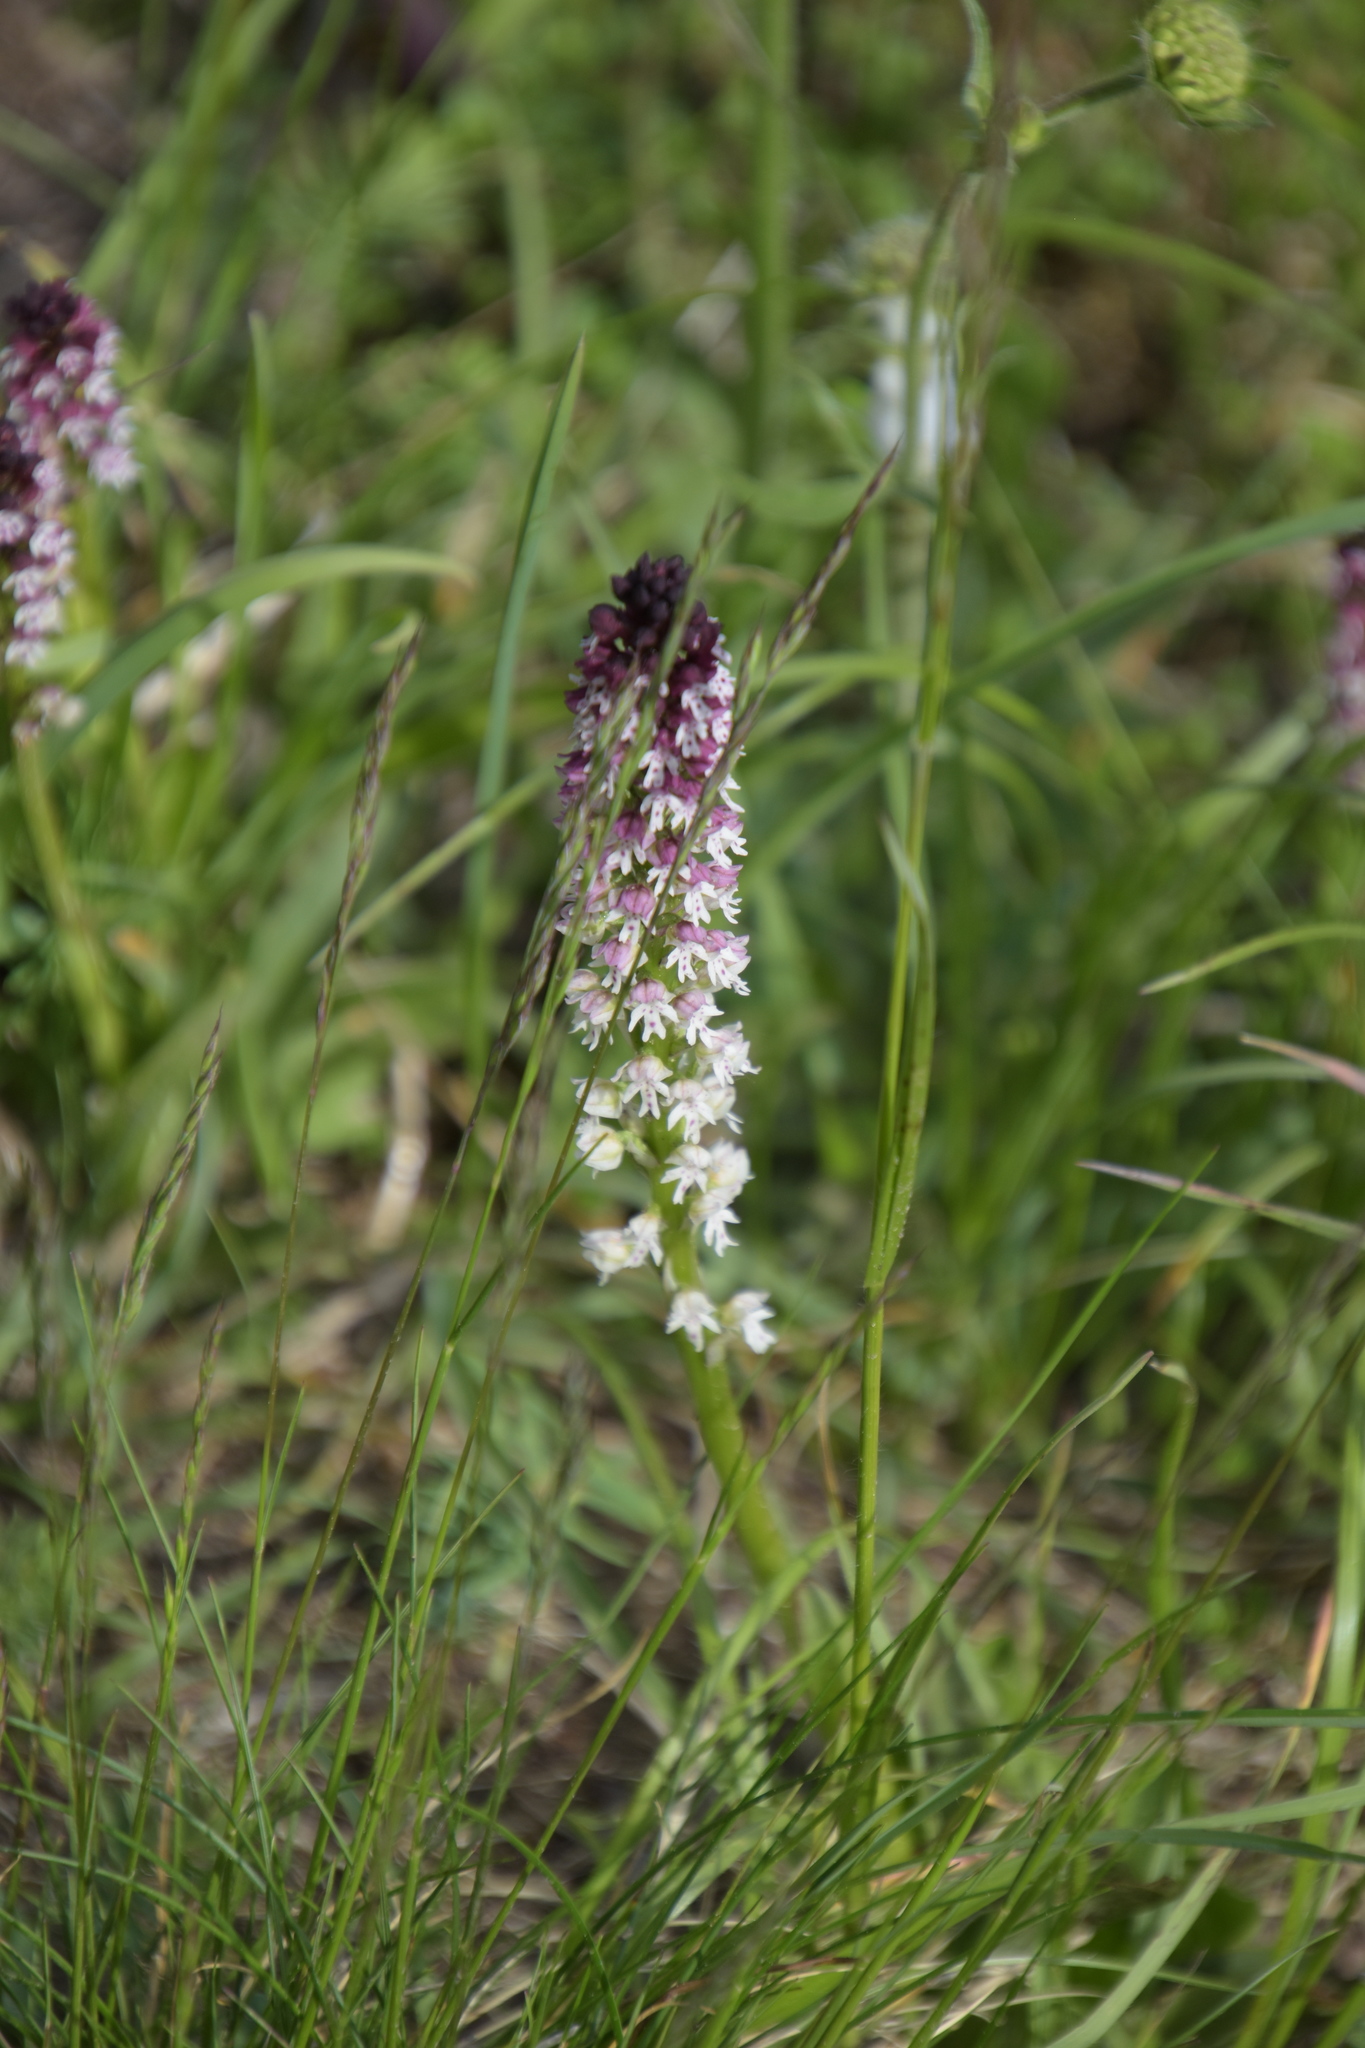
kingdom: Plantae
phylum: Tracheophyta
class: Liliopsida
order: Asparagales
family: Orchidaceae
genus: Neotinea
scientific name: Neotinea ustulata
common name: Burnt orchid
